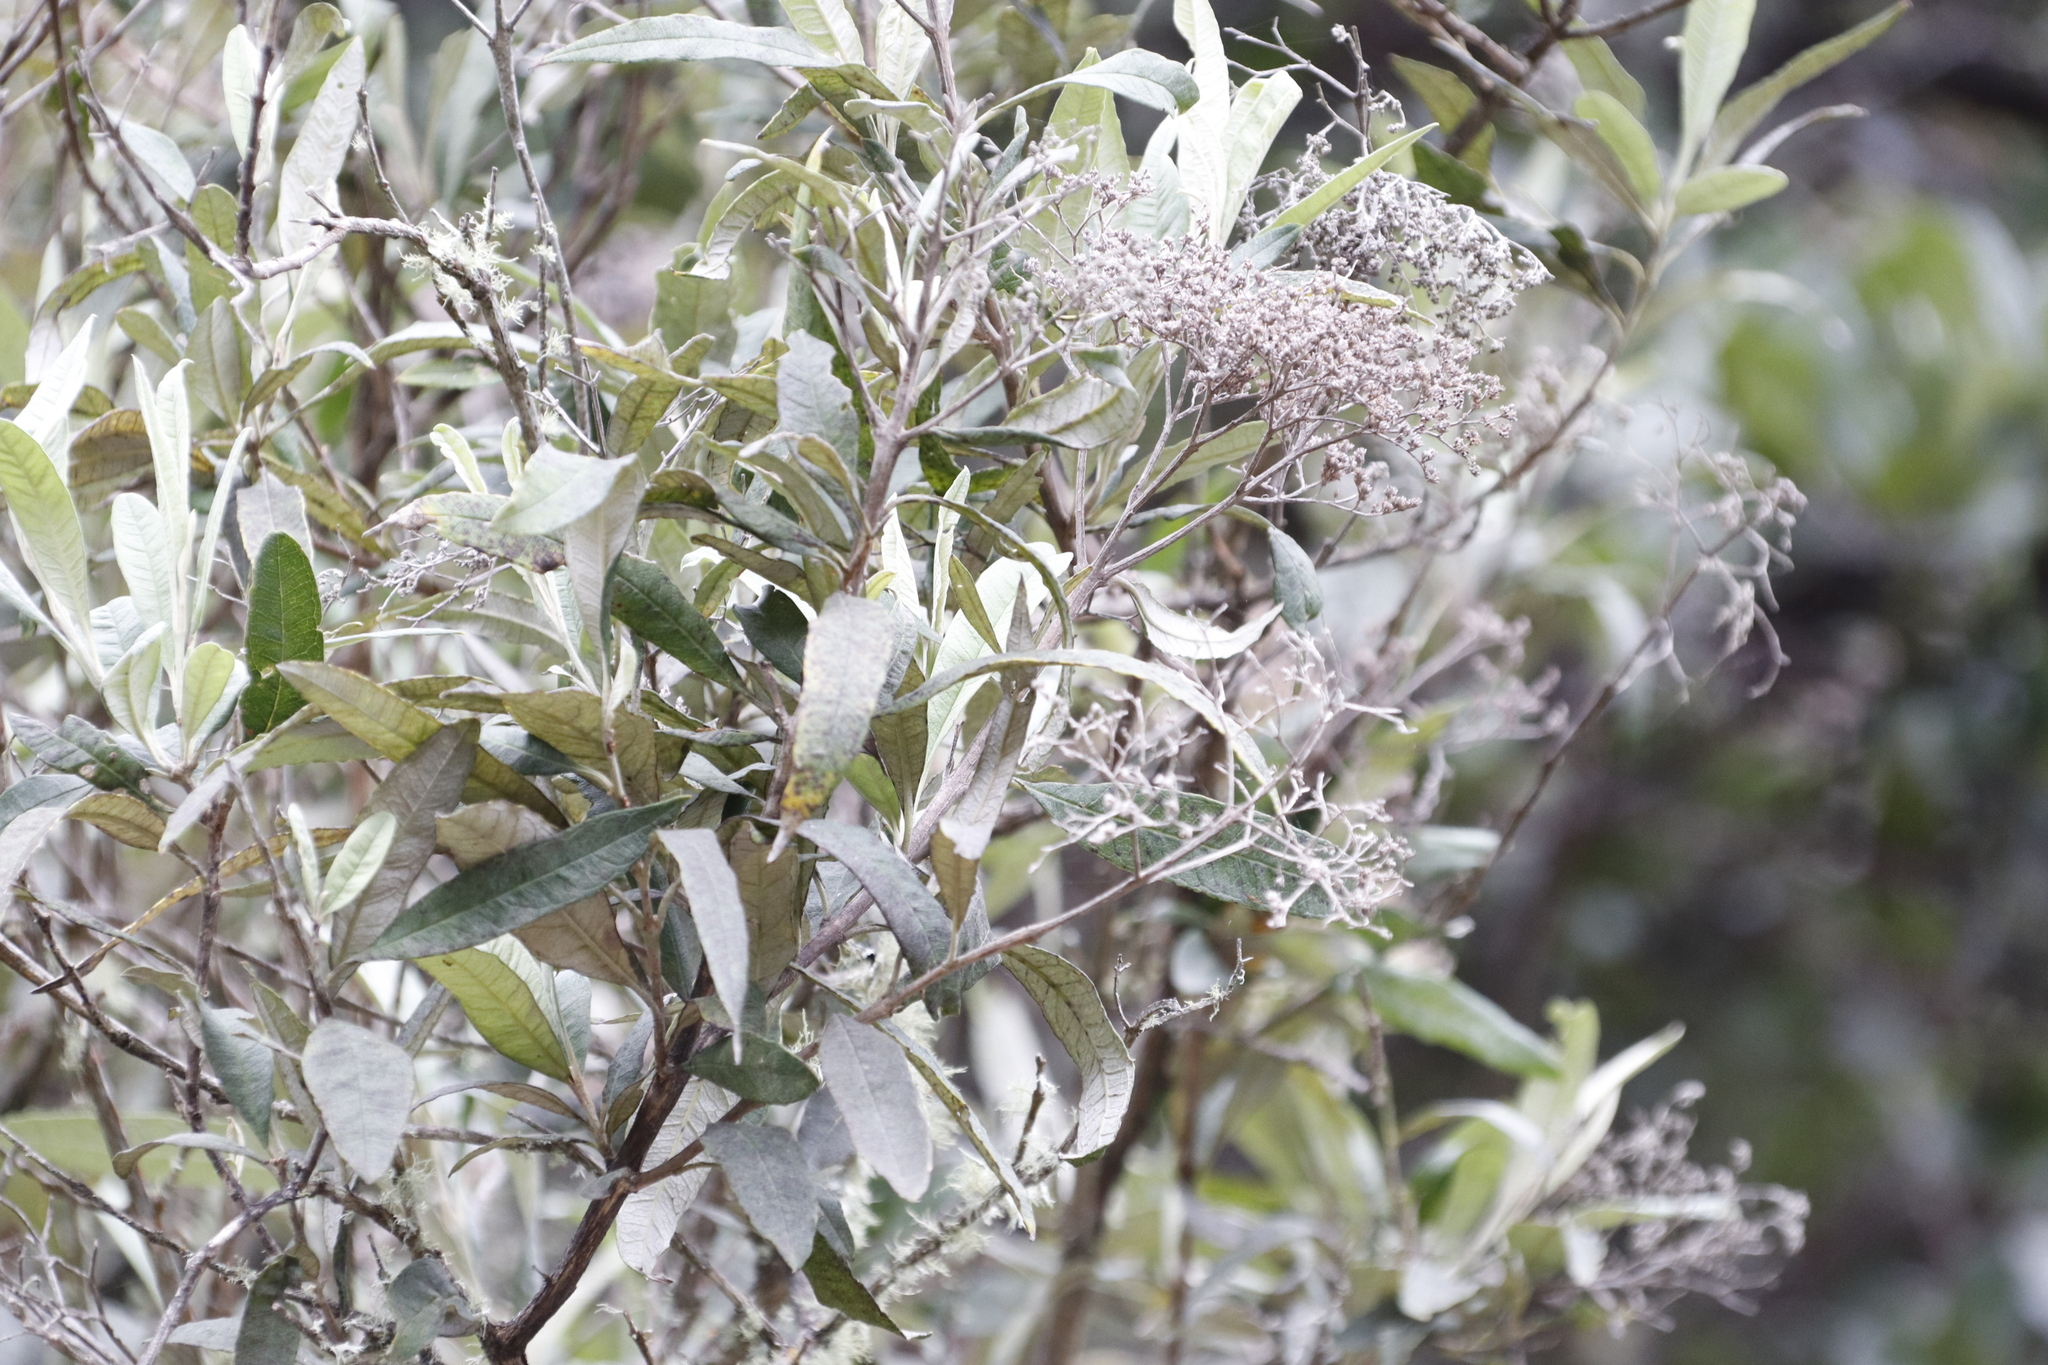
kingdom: Plantae
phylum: Tracheophyta
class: Magnoliopsida
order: Lamiales
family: Scrophulariaceae
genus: Buddleja
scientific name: Buddleja saligna
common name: False olive
